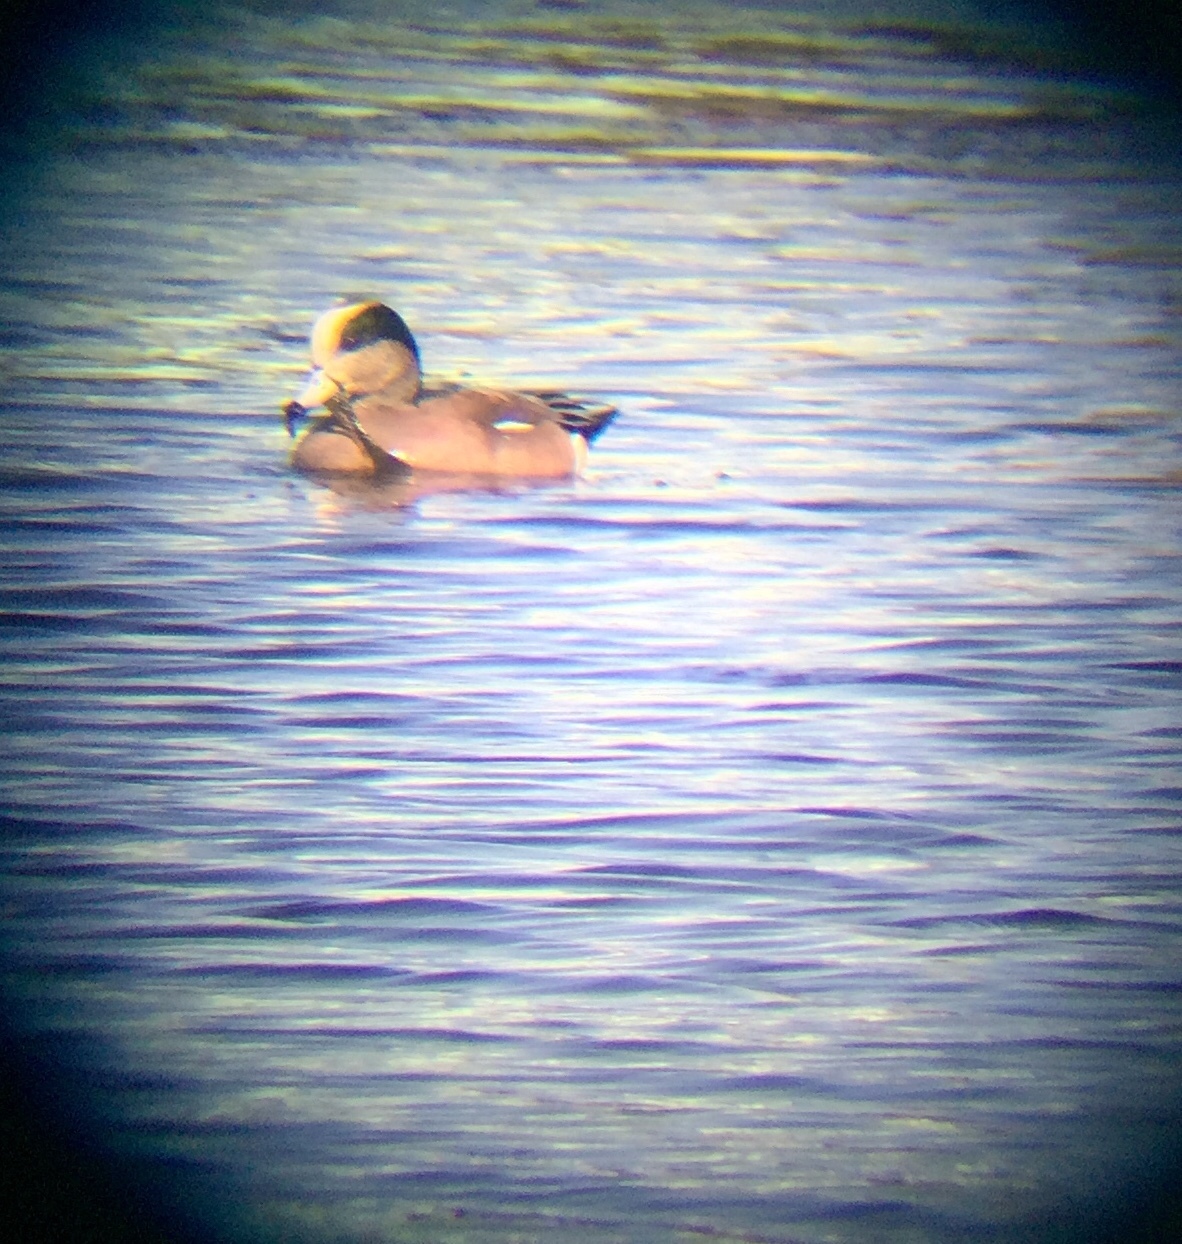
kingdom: Animalia
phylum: Chordata
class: Aves
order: Anseriformes
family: Anatidae
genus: Mareca
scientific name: Mareca americana
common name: American wigeon
